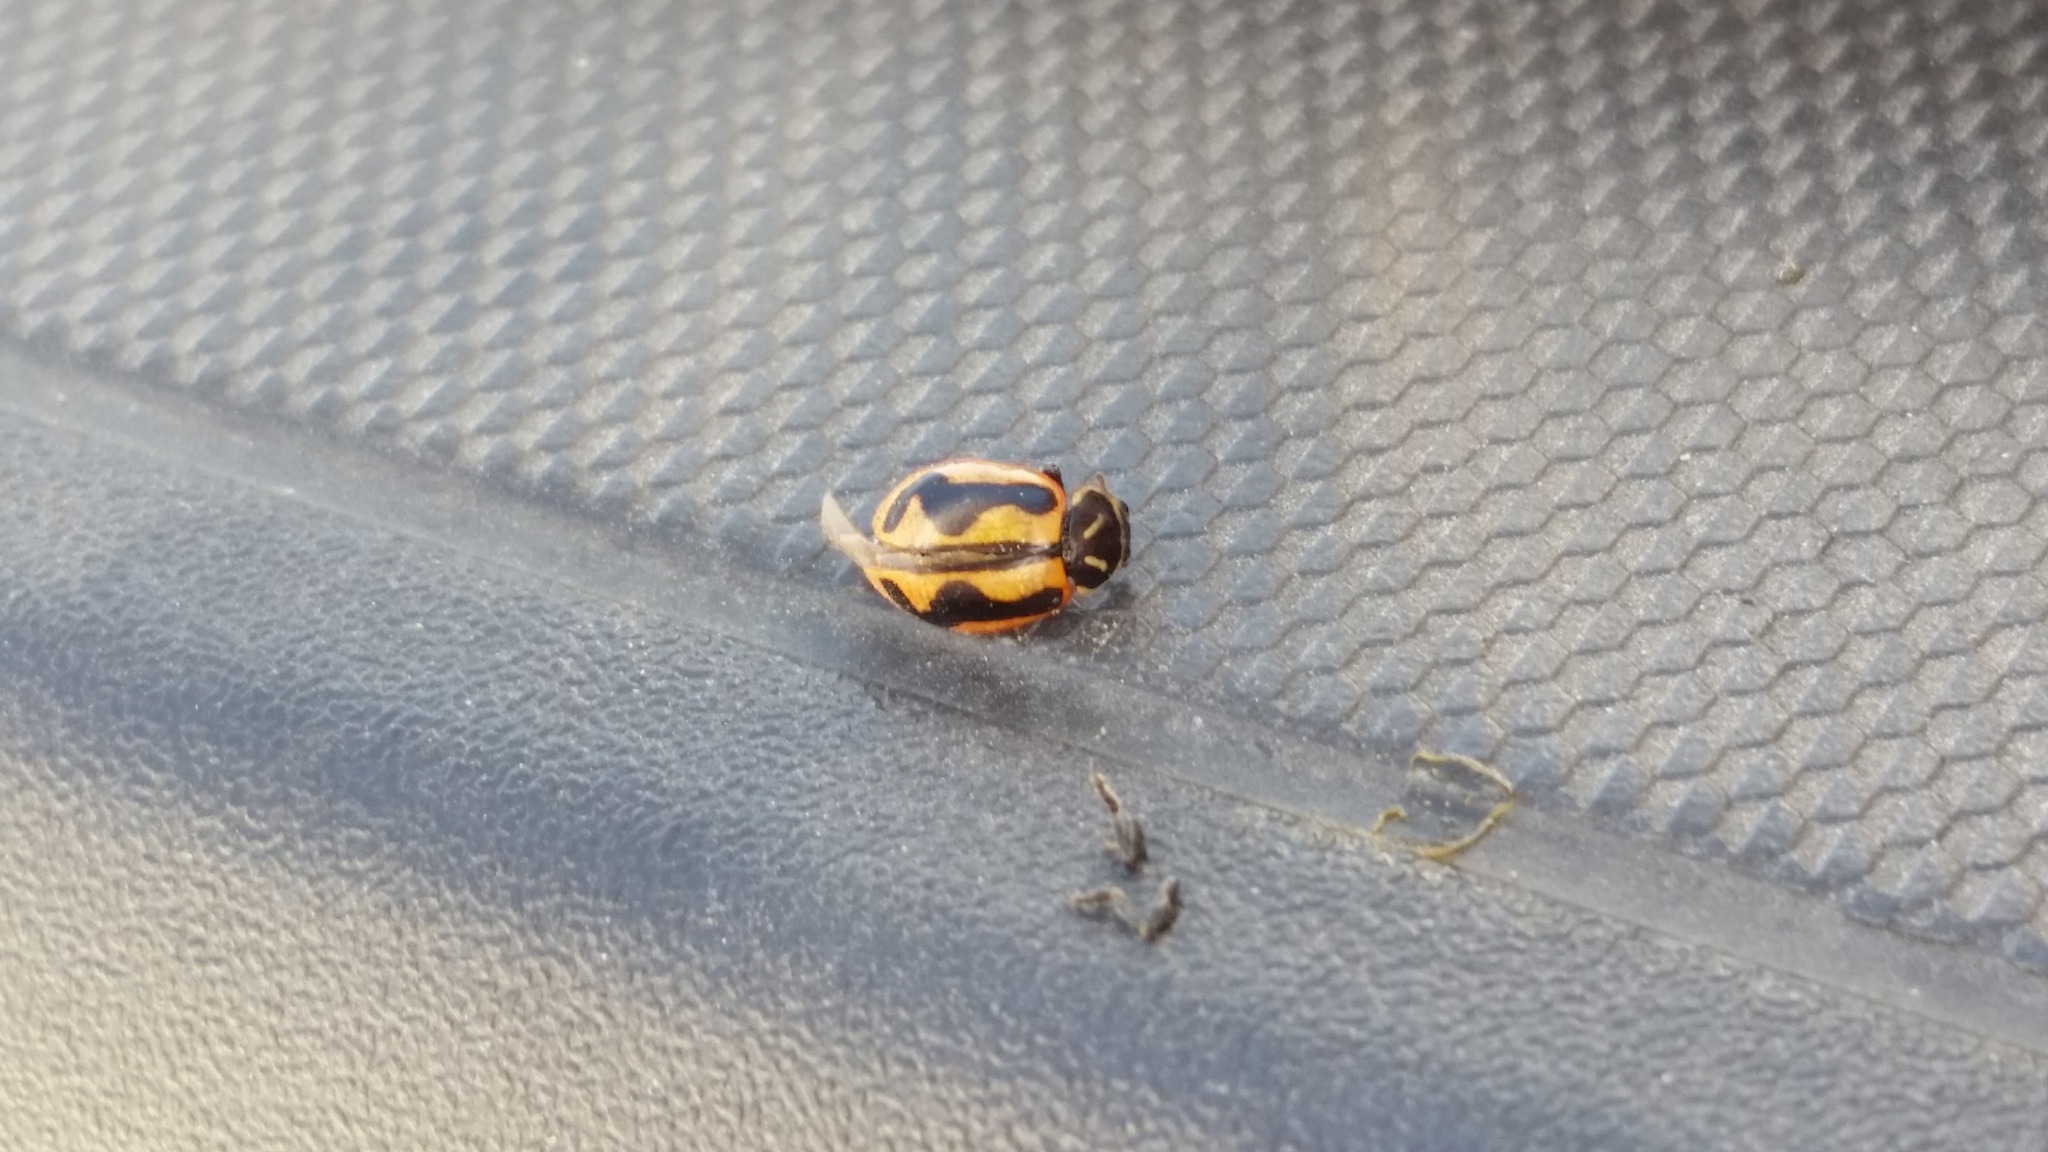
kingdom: Animalia
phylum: Arthropoda
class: Insecta
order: Coleoptera
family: Coccinellidae
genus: Hippodamia
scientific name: Hippodamia sinuata
